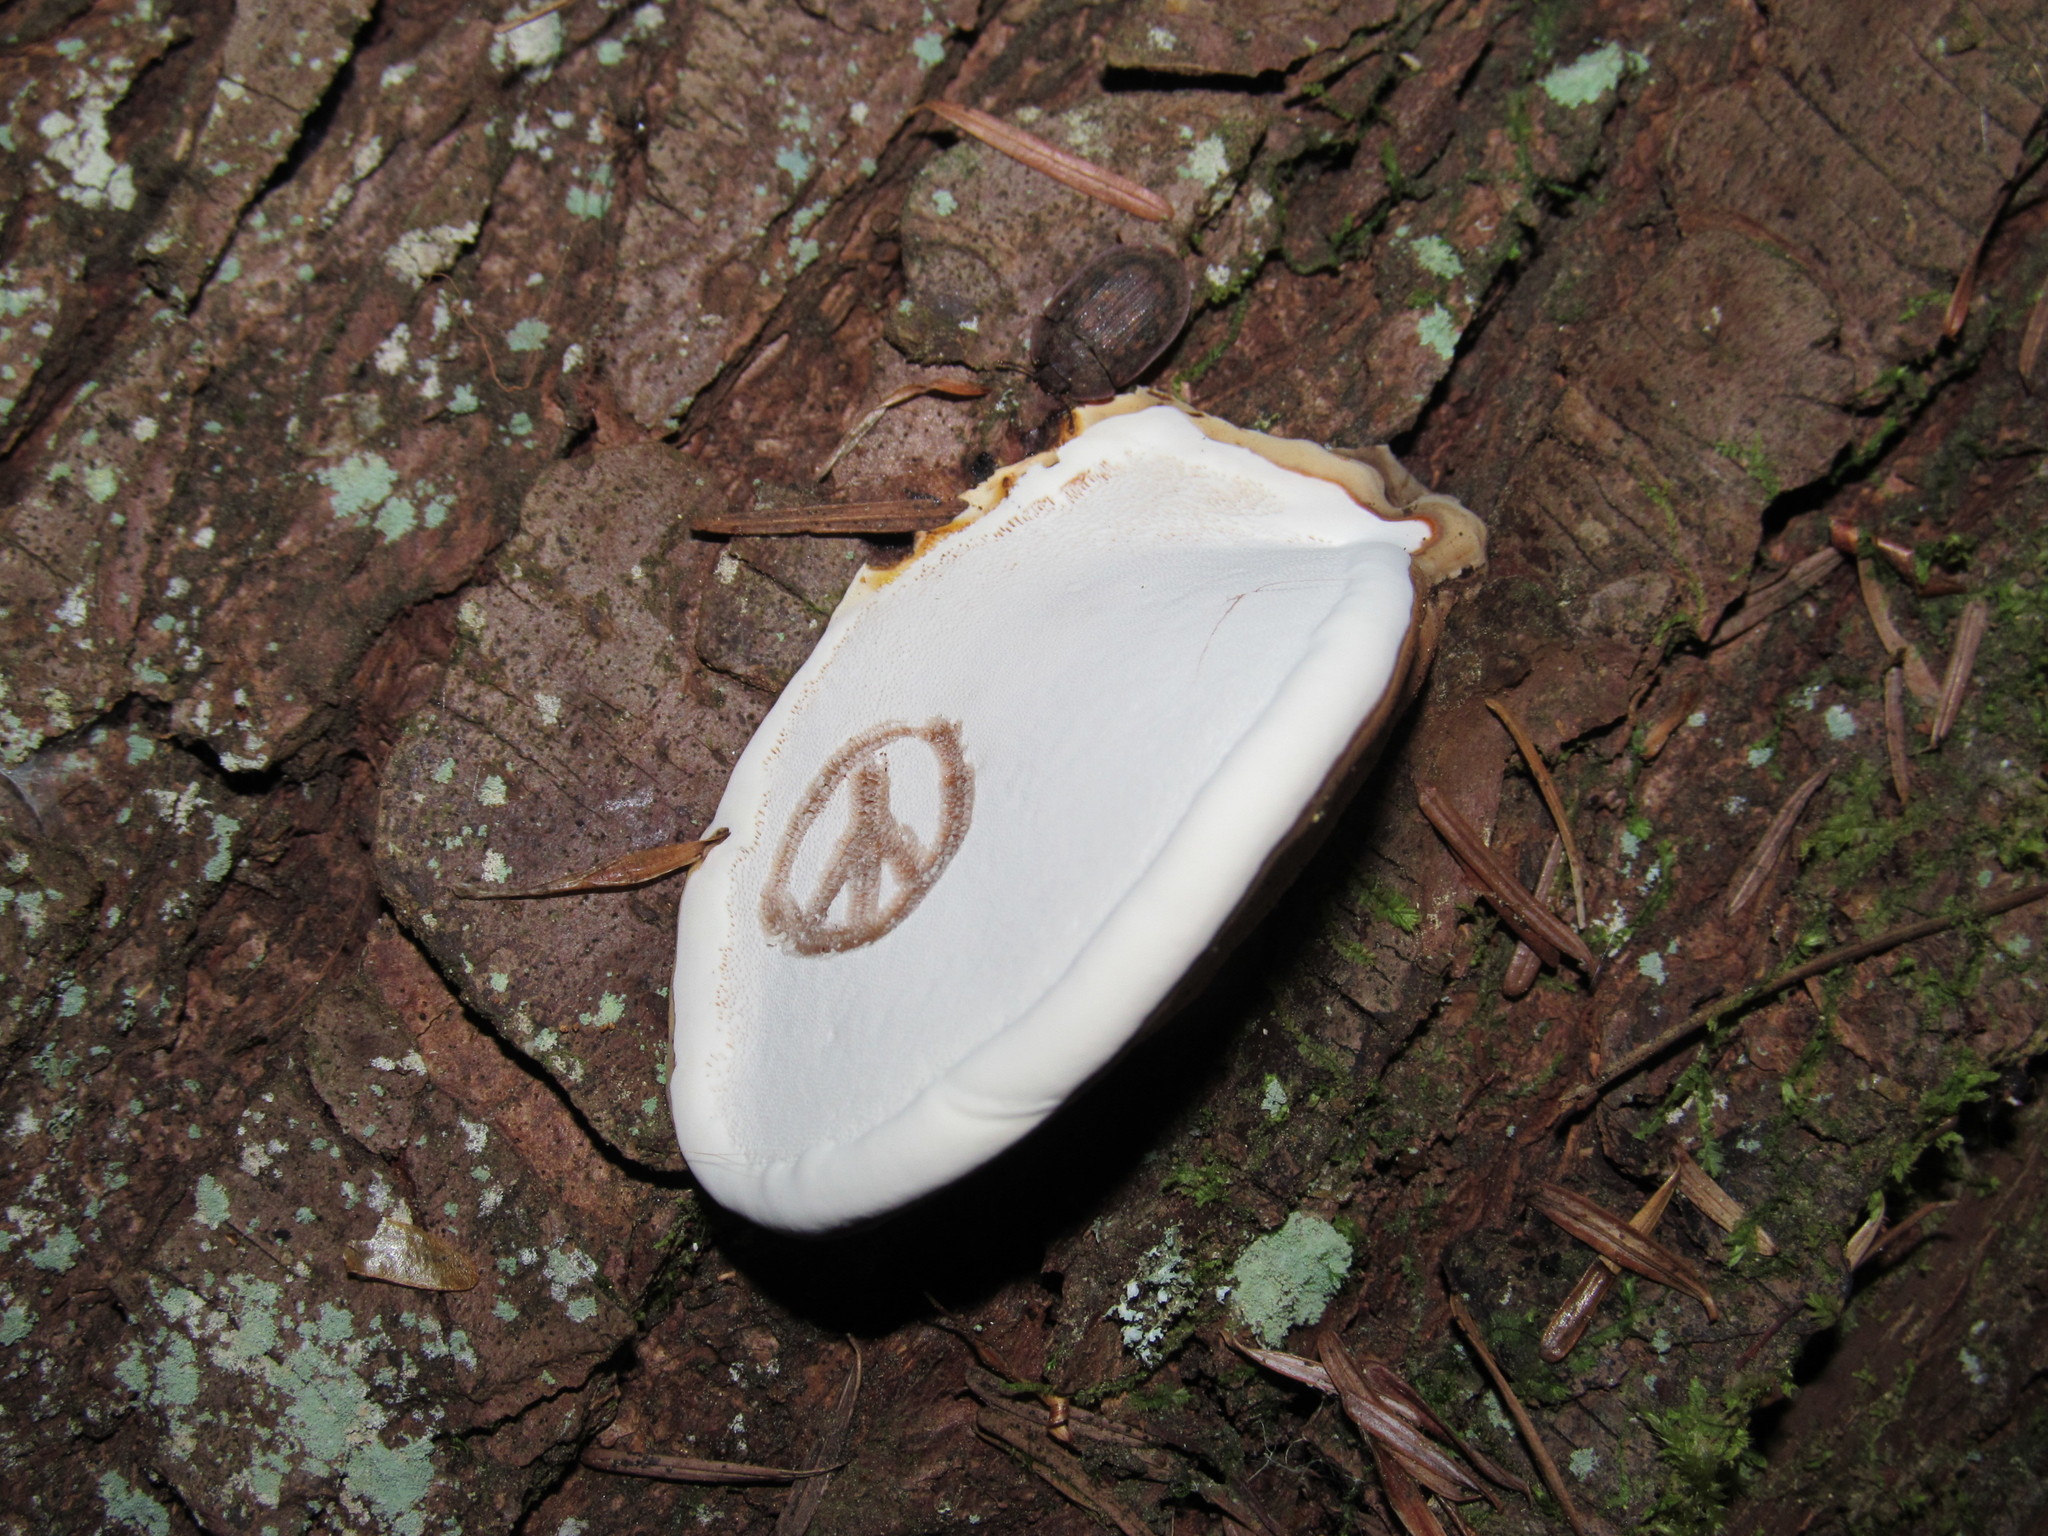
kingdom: Fungi
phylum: Basidiomycota
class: Agaricomycetes
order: Polyporales
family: Polyporaceae
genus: Ganoderma
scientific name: Ganoderma applanatum
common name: Artist's bracket
